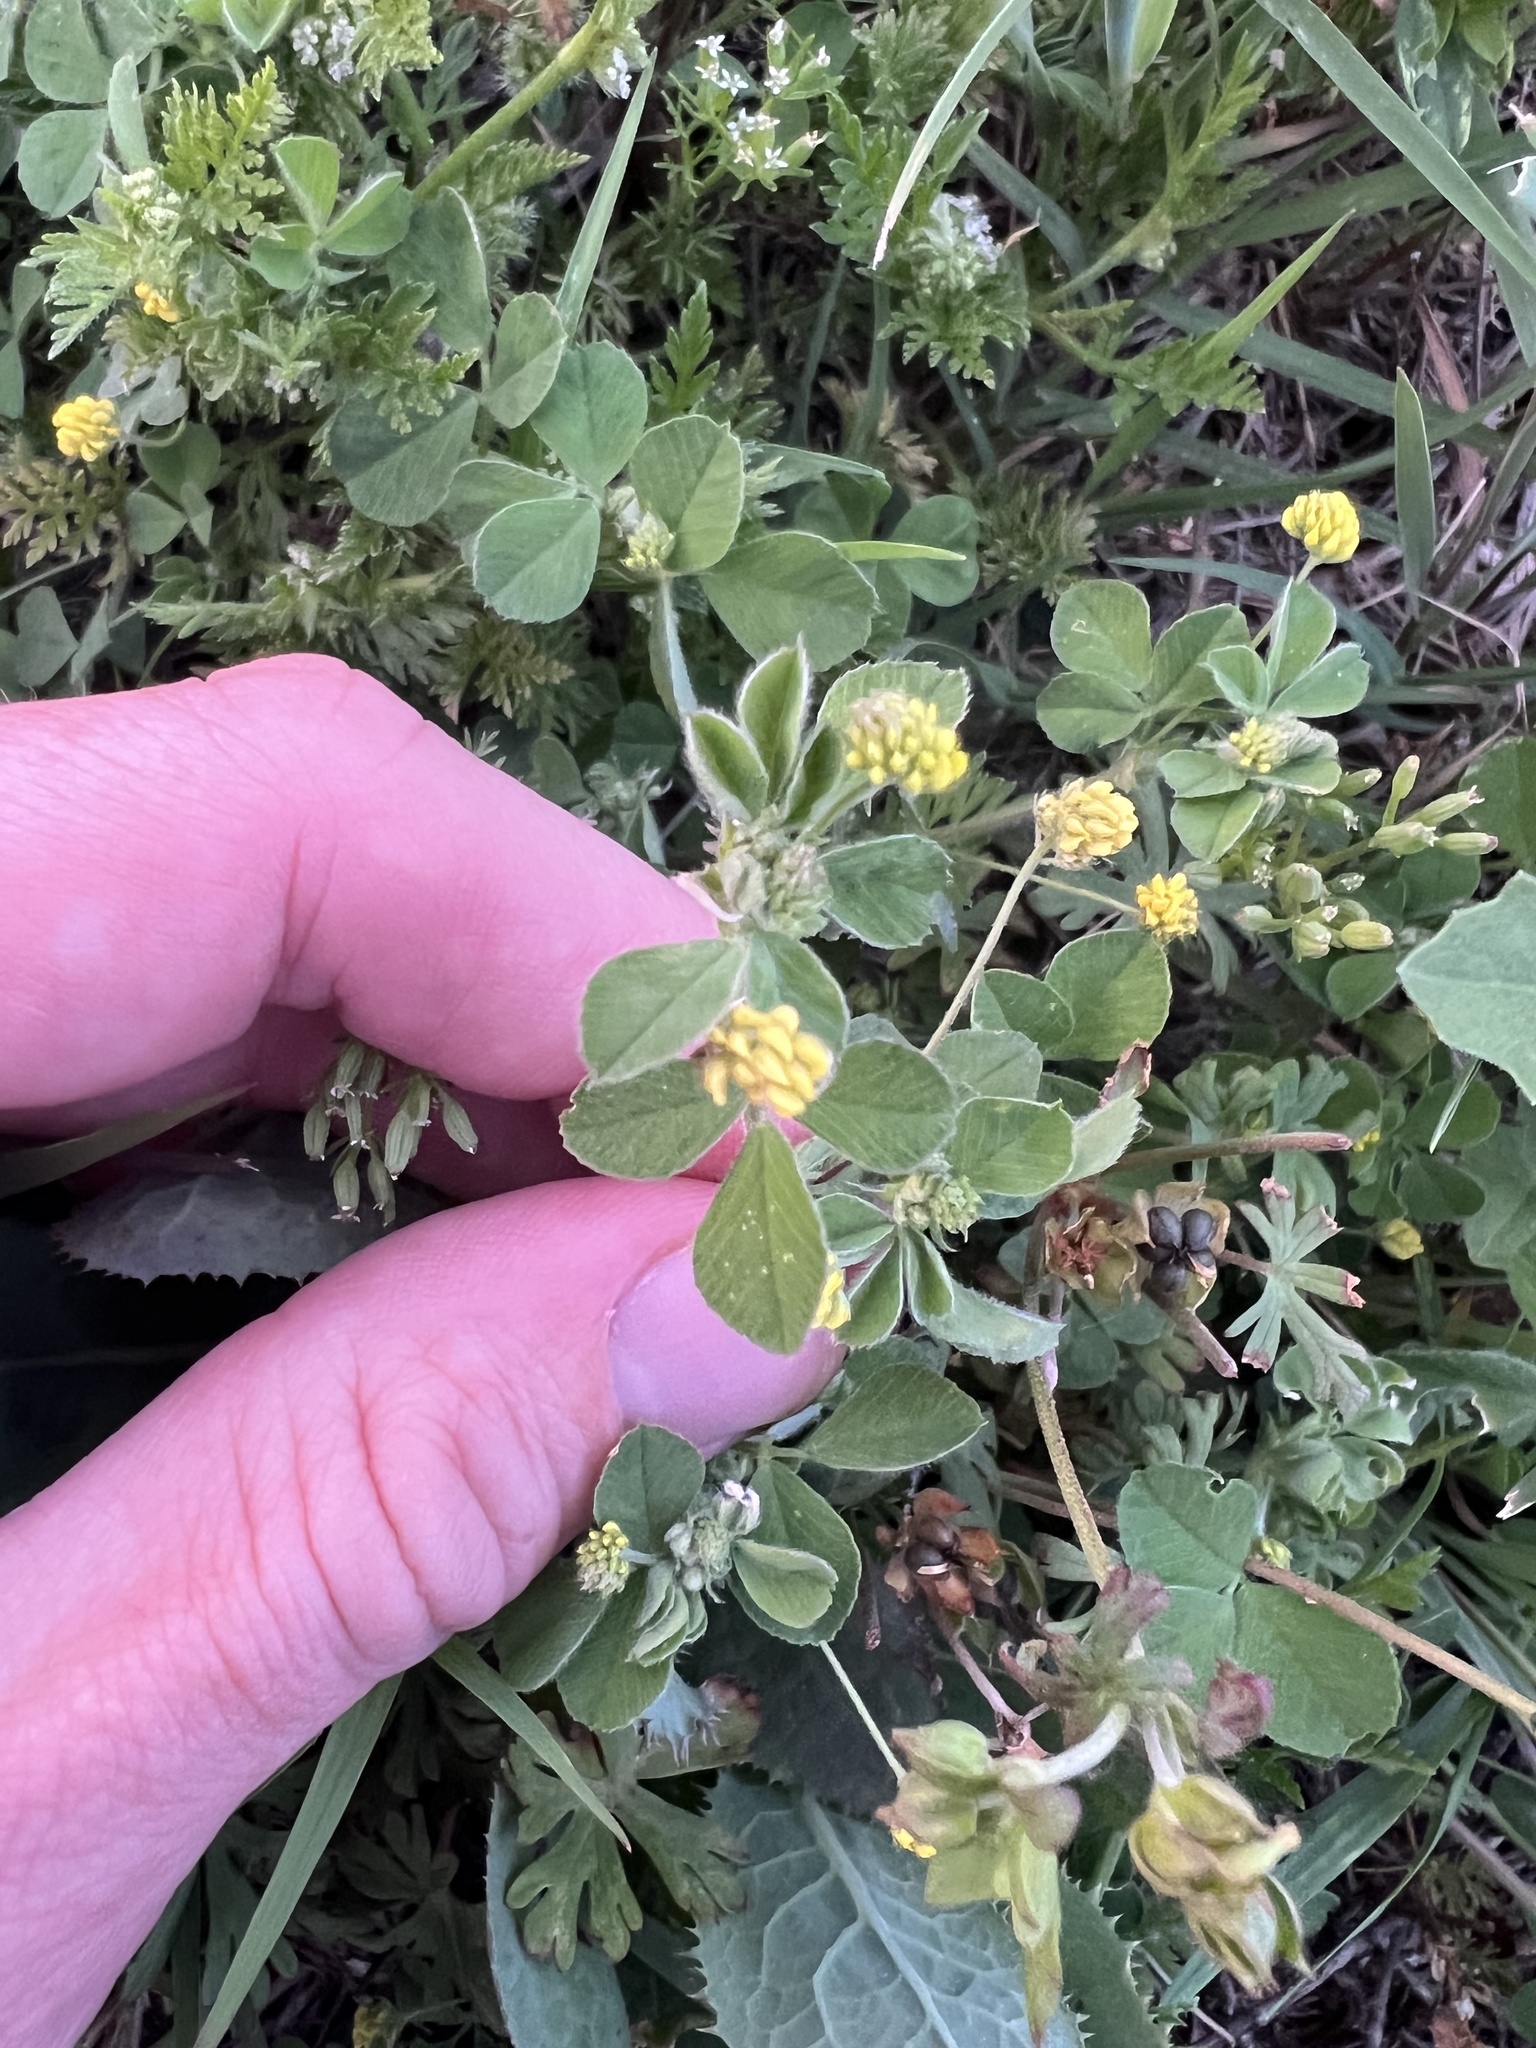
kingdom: Plantae
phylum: Tracheophyta
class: Magnoliopsida
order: Fabales
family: Fabaceae
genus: Medicago
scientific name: Medicago lupulina
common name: Black medick
